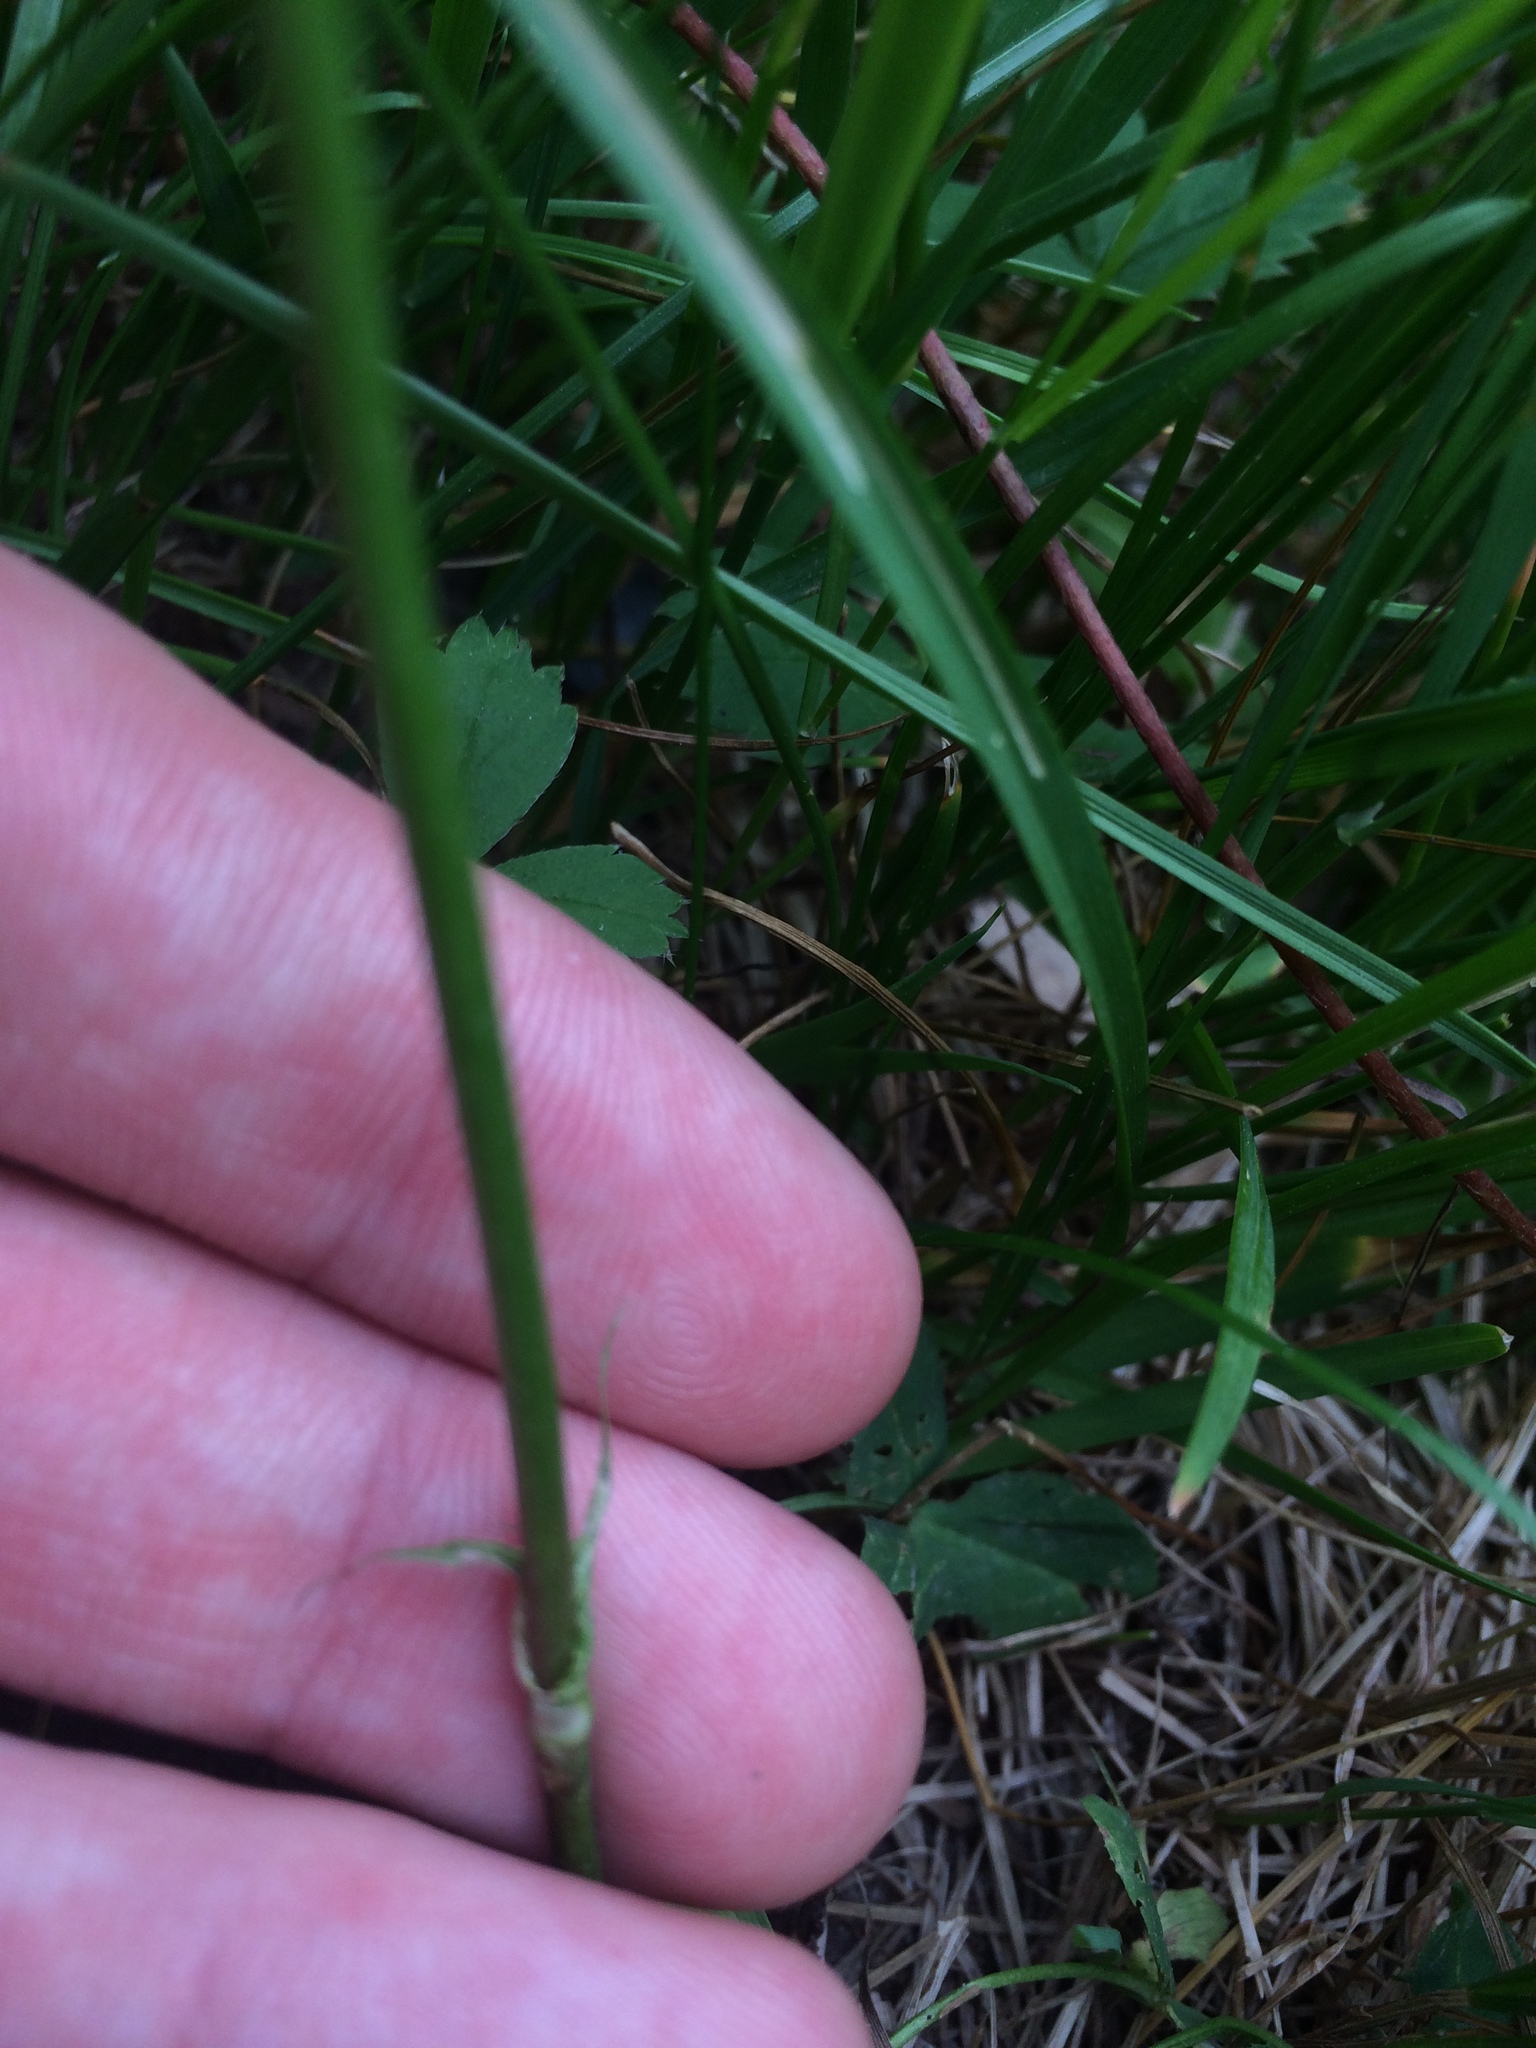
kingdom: Plantae
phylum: Tracheophyta
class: Magnoliopsida
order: Fabales
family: Fabaceae
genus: Trifolium
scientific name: Trifolium hybridum
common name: Alsike clover
